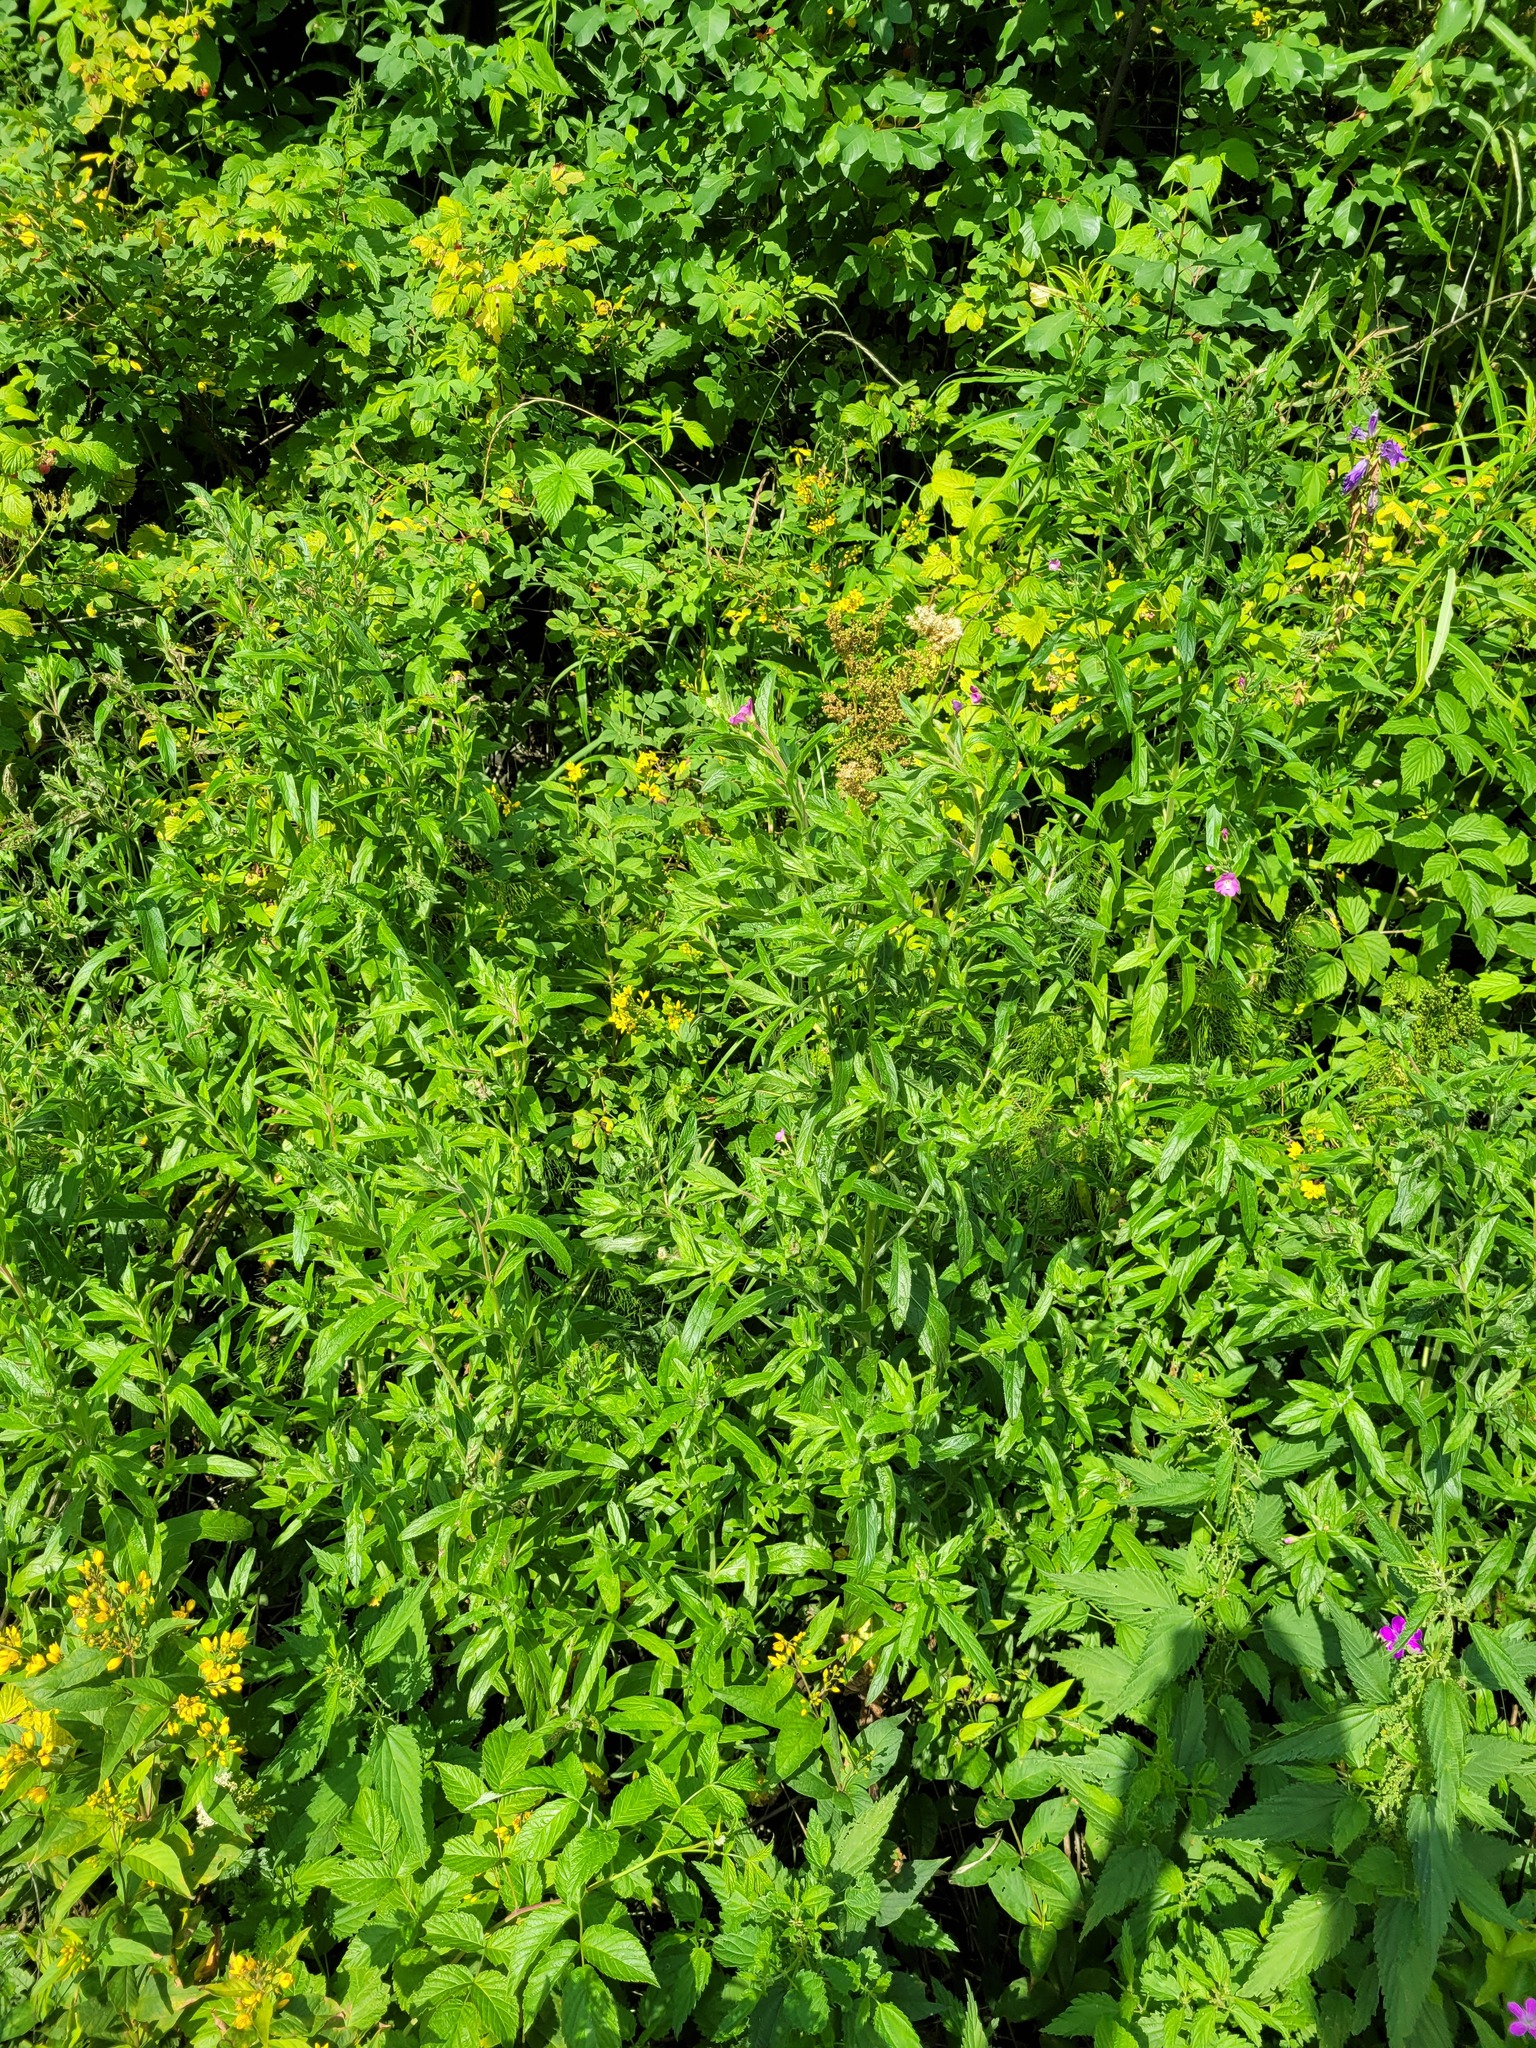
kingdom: Plantae
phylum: Tracheophyta
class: Magnoliopsida
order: Myrtales
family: Onagraceae
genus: Epilobium
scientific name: Epilobium hirsutum
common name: Great willowherb
